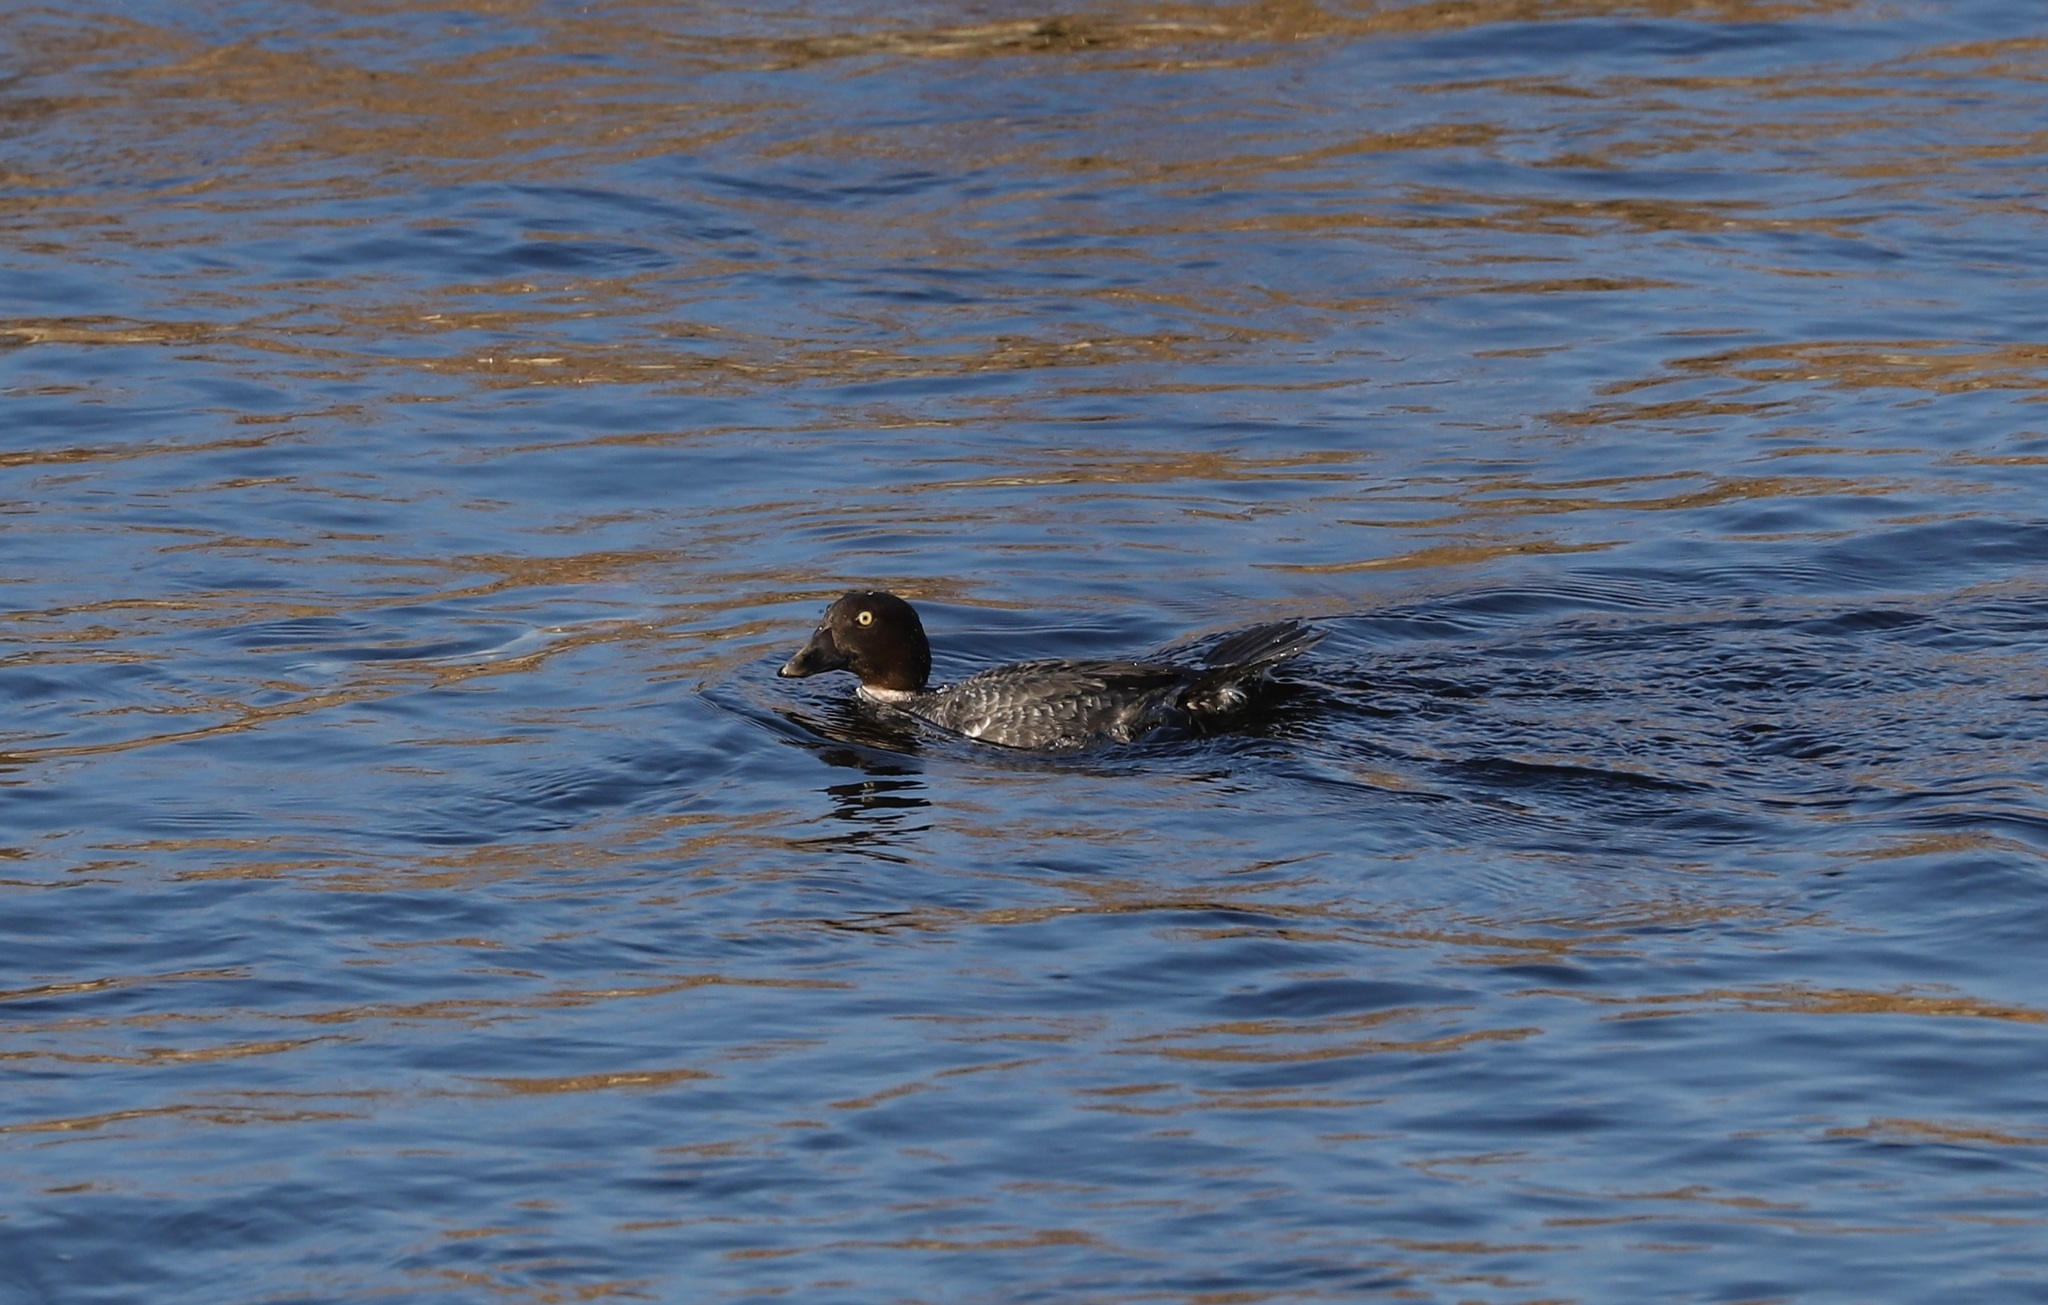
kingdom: Animalia
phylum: Chordata
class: Aves
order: Anseriformes
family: Anatidae
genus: Bucephala
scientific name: Bucephala clangula
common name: Common goldeneye
